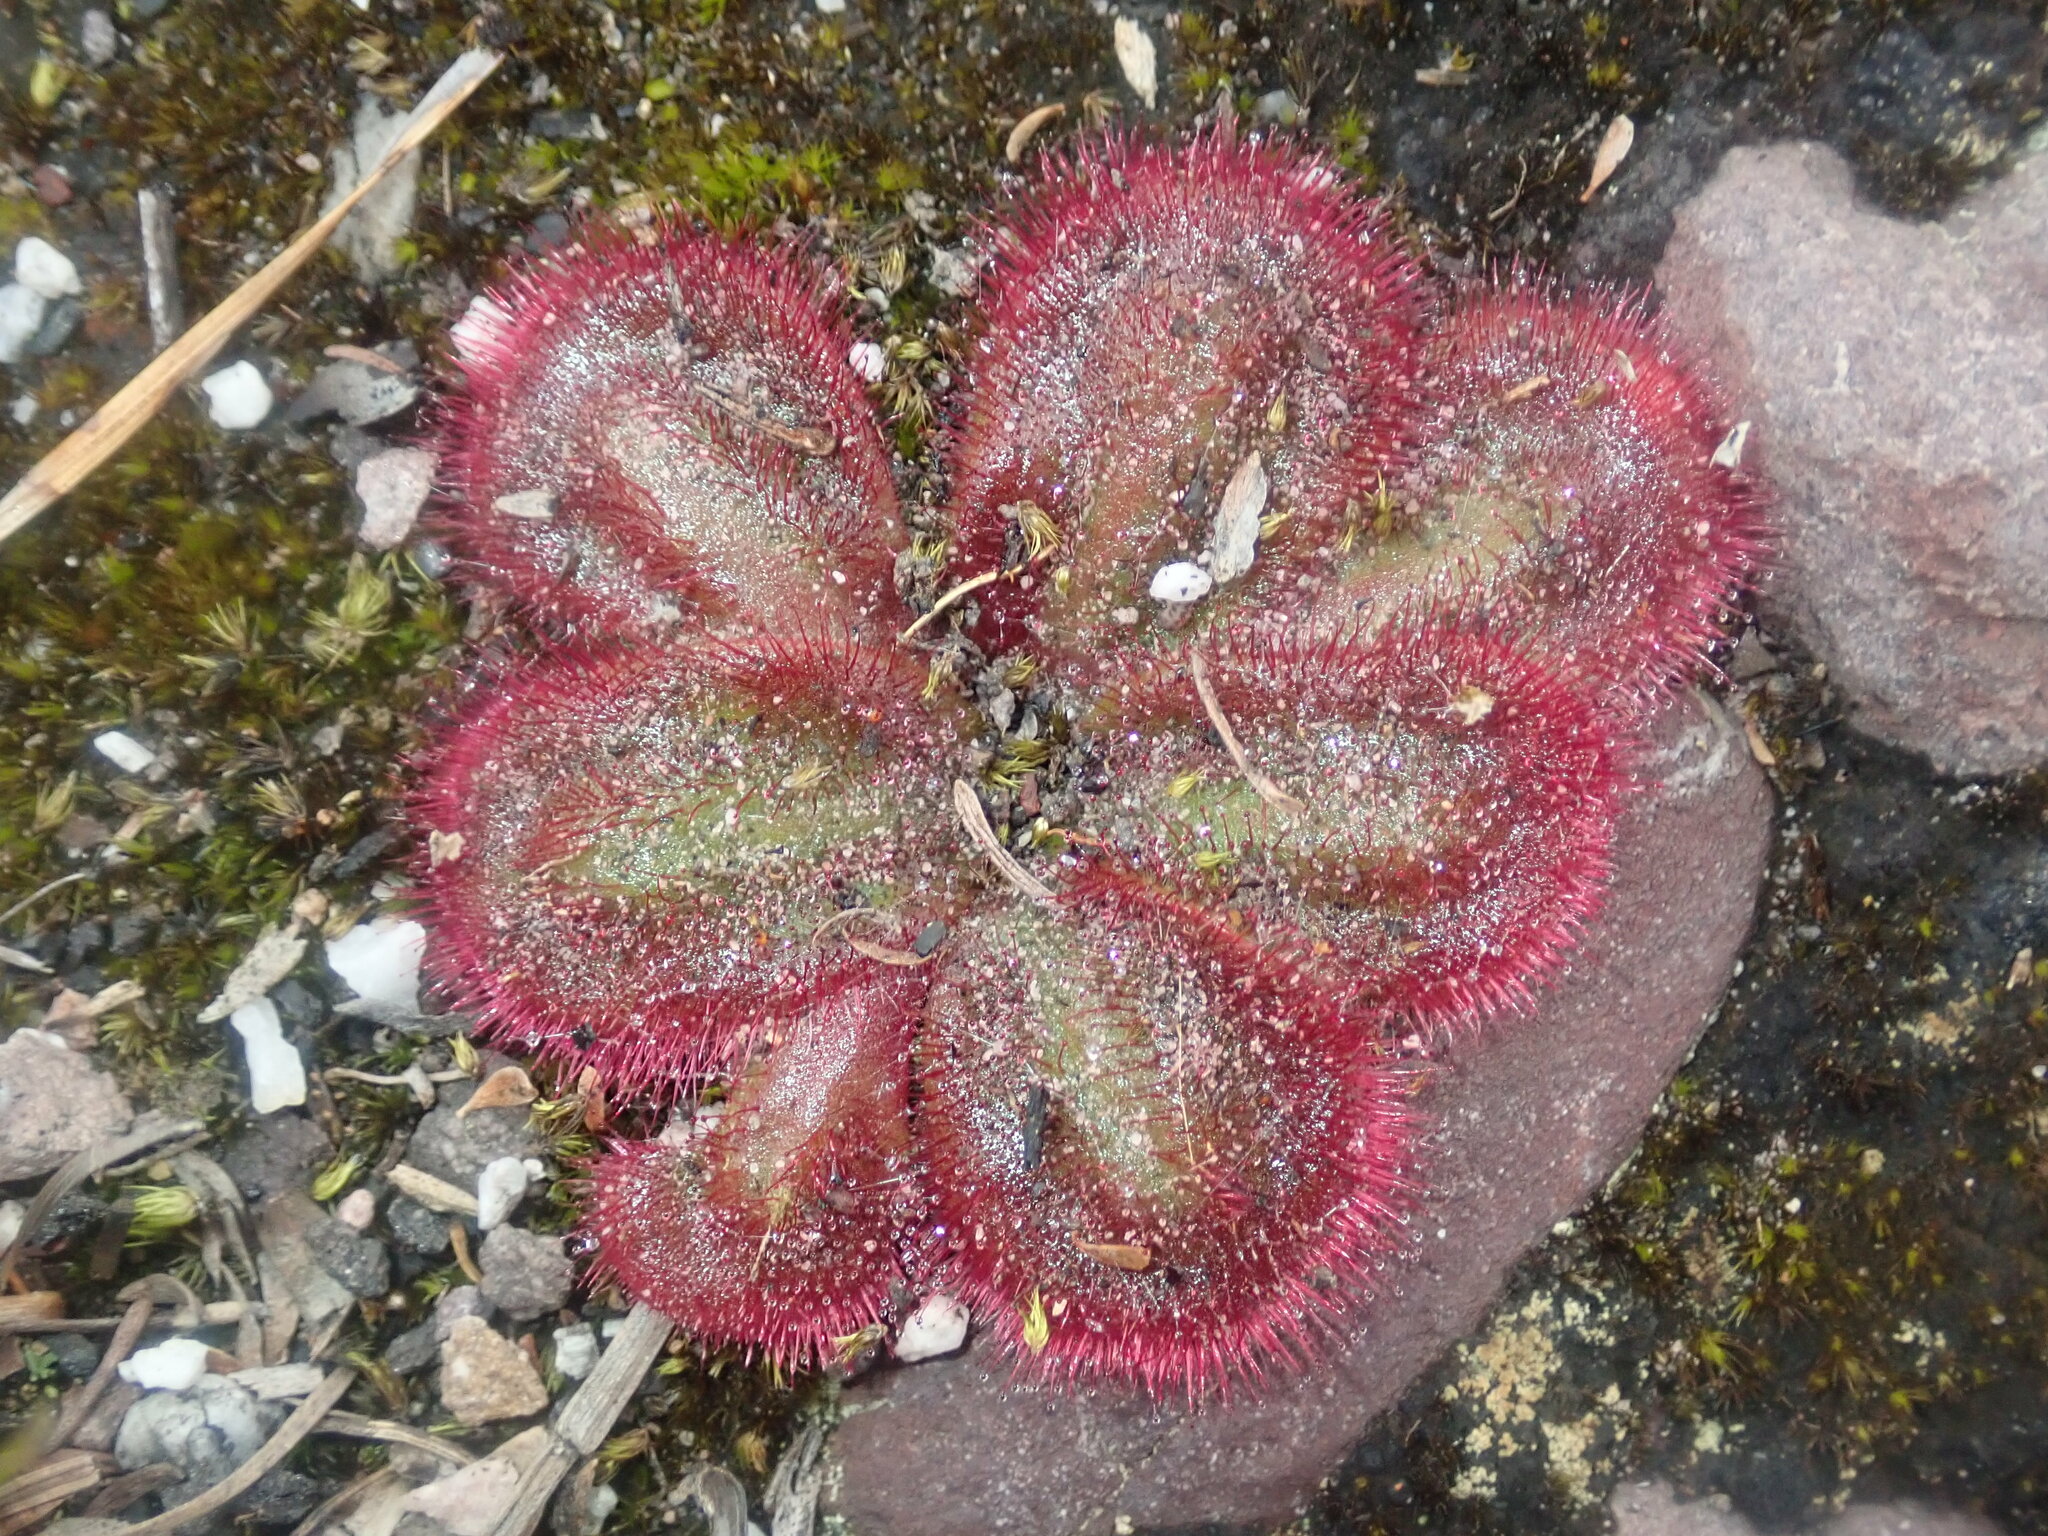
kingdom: Plantae
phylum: Tracheophyta
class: Magnoliopsida
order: Caryophyllales
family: Droseraceae
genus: Drosera
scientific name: Drosera erythrorhiza
